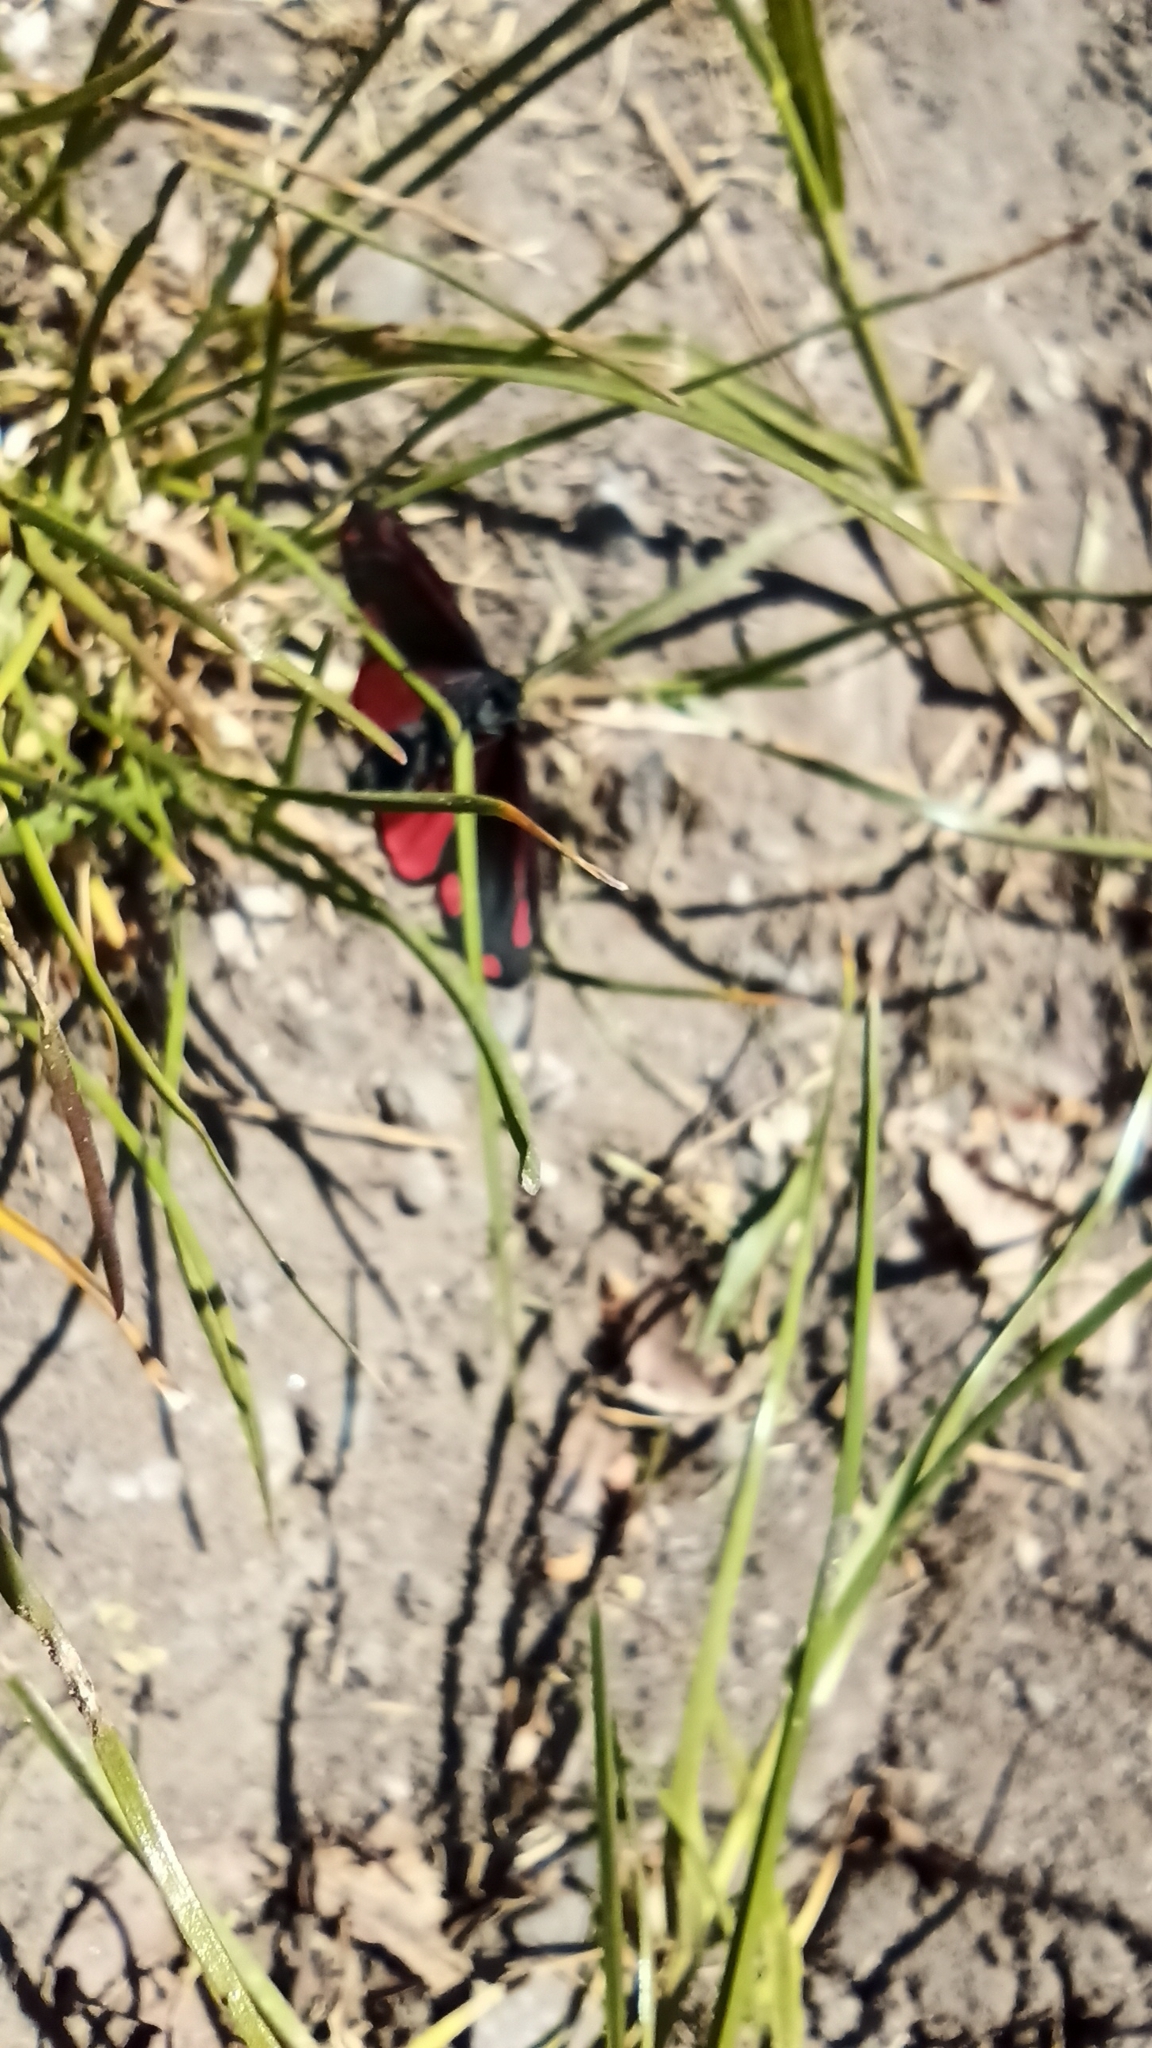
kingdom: Animalia
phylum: Arthropoda
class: Insecta
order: Lepidoptera
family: Erebidae
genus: Tyria
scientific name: Tyria jacobaeae
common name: Cinnabar
